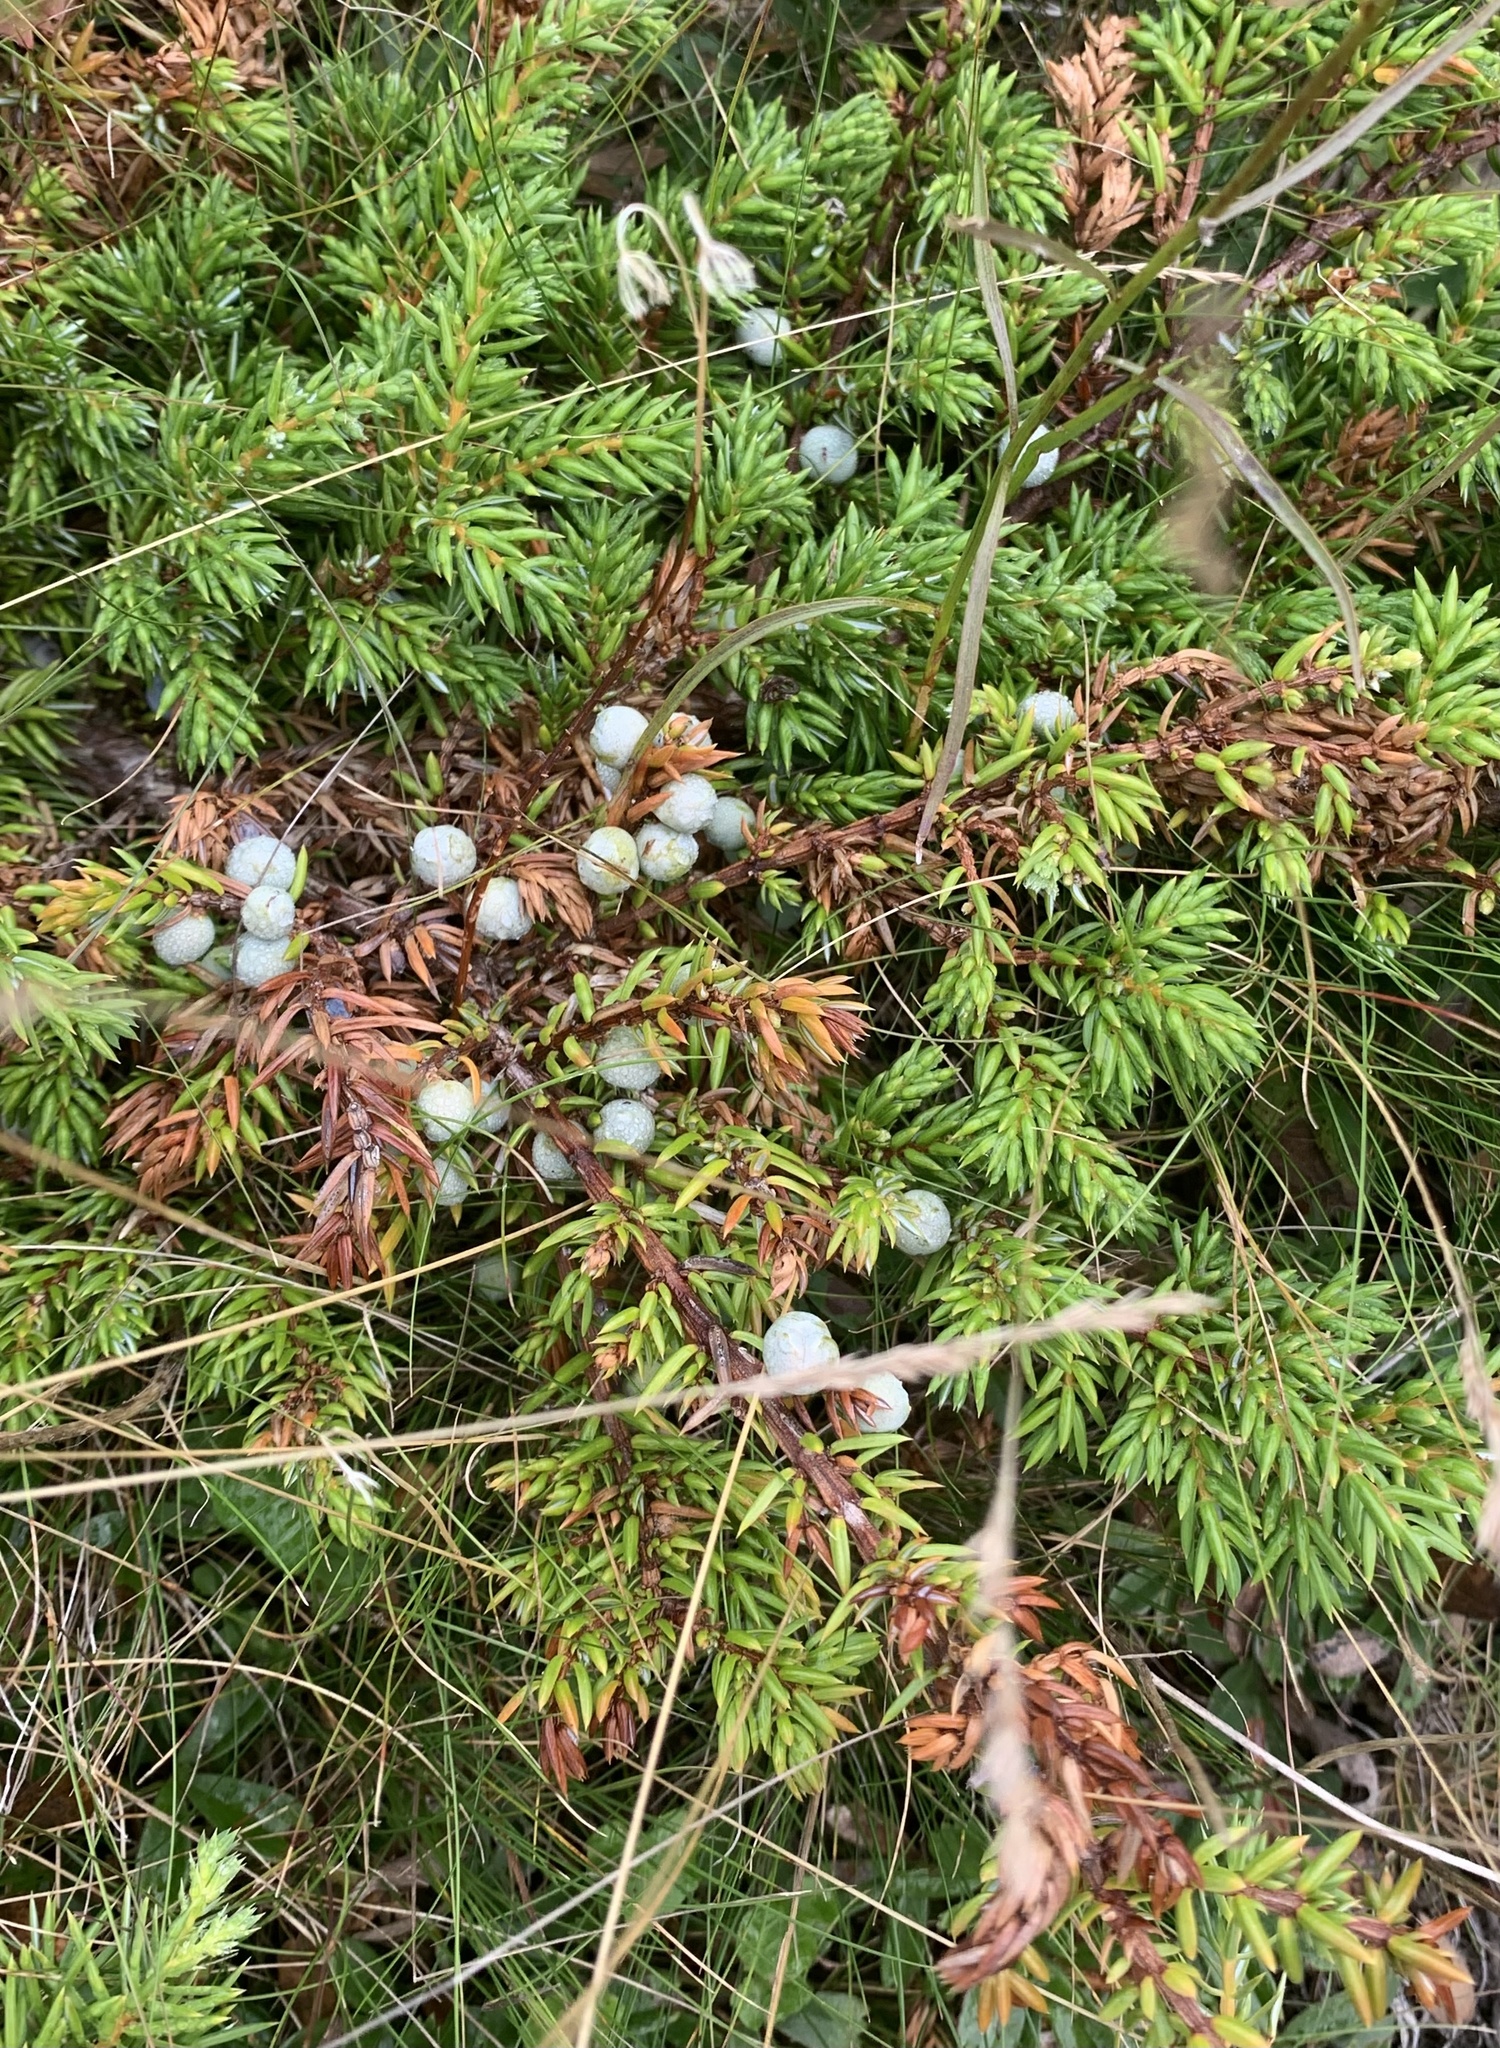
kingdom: Plantae
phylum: Tracheophyta
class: Pinopsida
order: Pinales
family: Cupressaceae
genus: Juniperus
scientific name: Juniperus communis
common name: Common juniper
